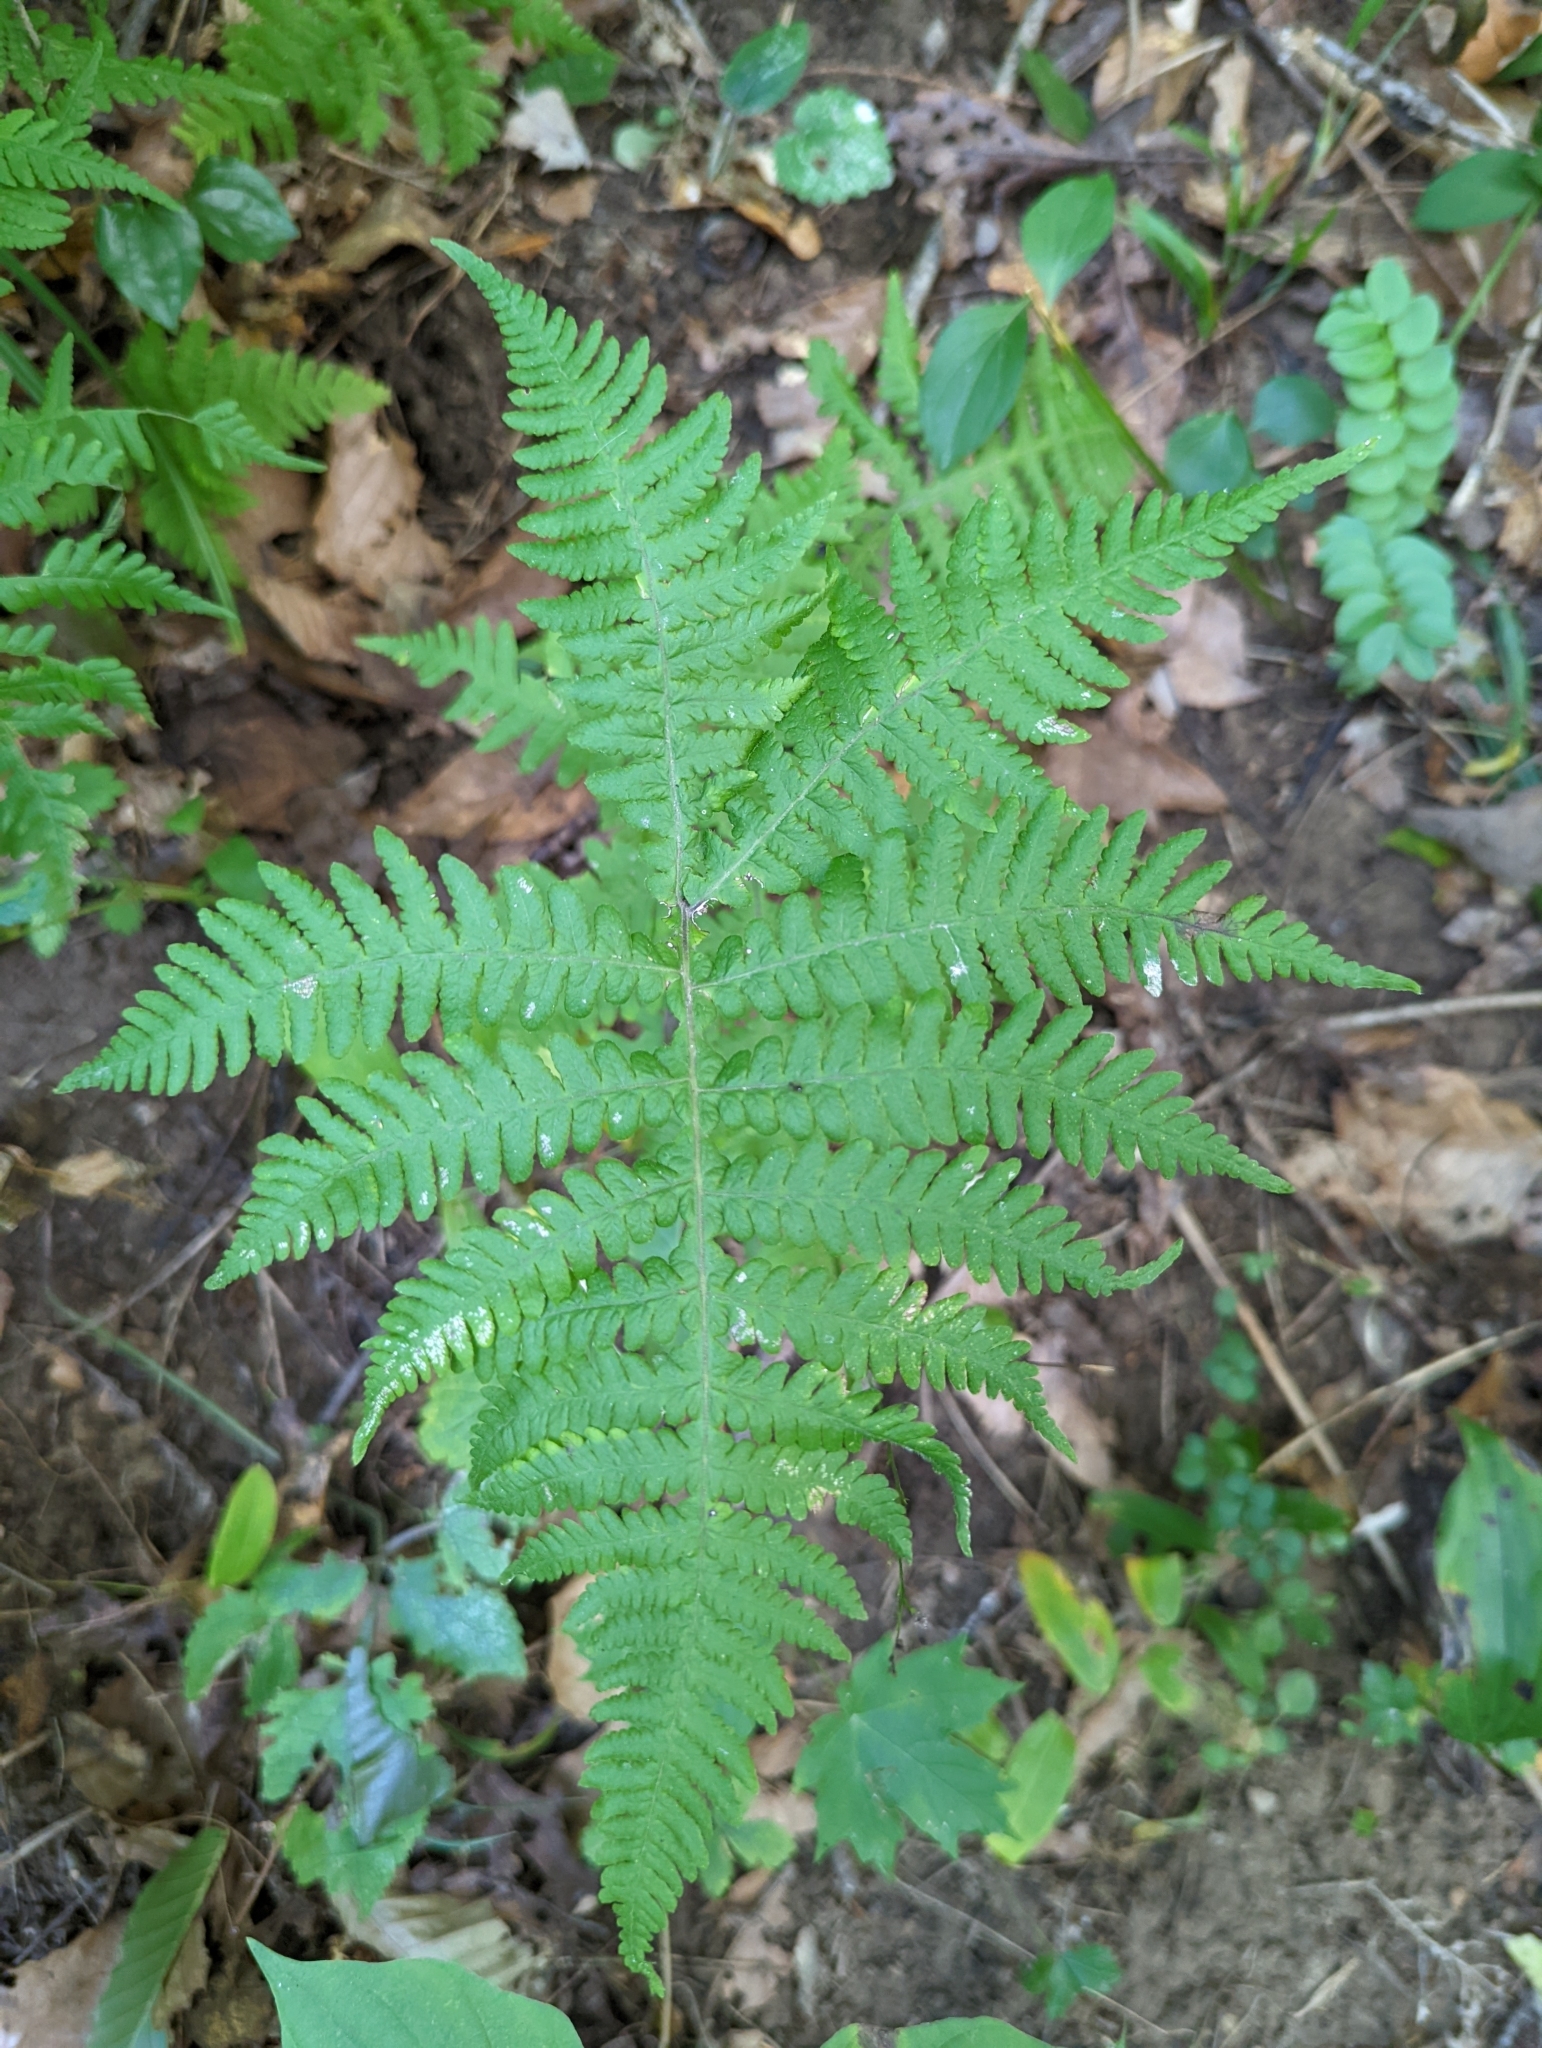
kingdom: Plantae
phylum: Tracheophyta
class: Polypodiopsida
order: Polypodiales
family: Thelypteridaceae
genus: Phegopteris
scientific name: Phegopteris hexagonoptera
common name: Broad beech fern
